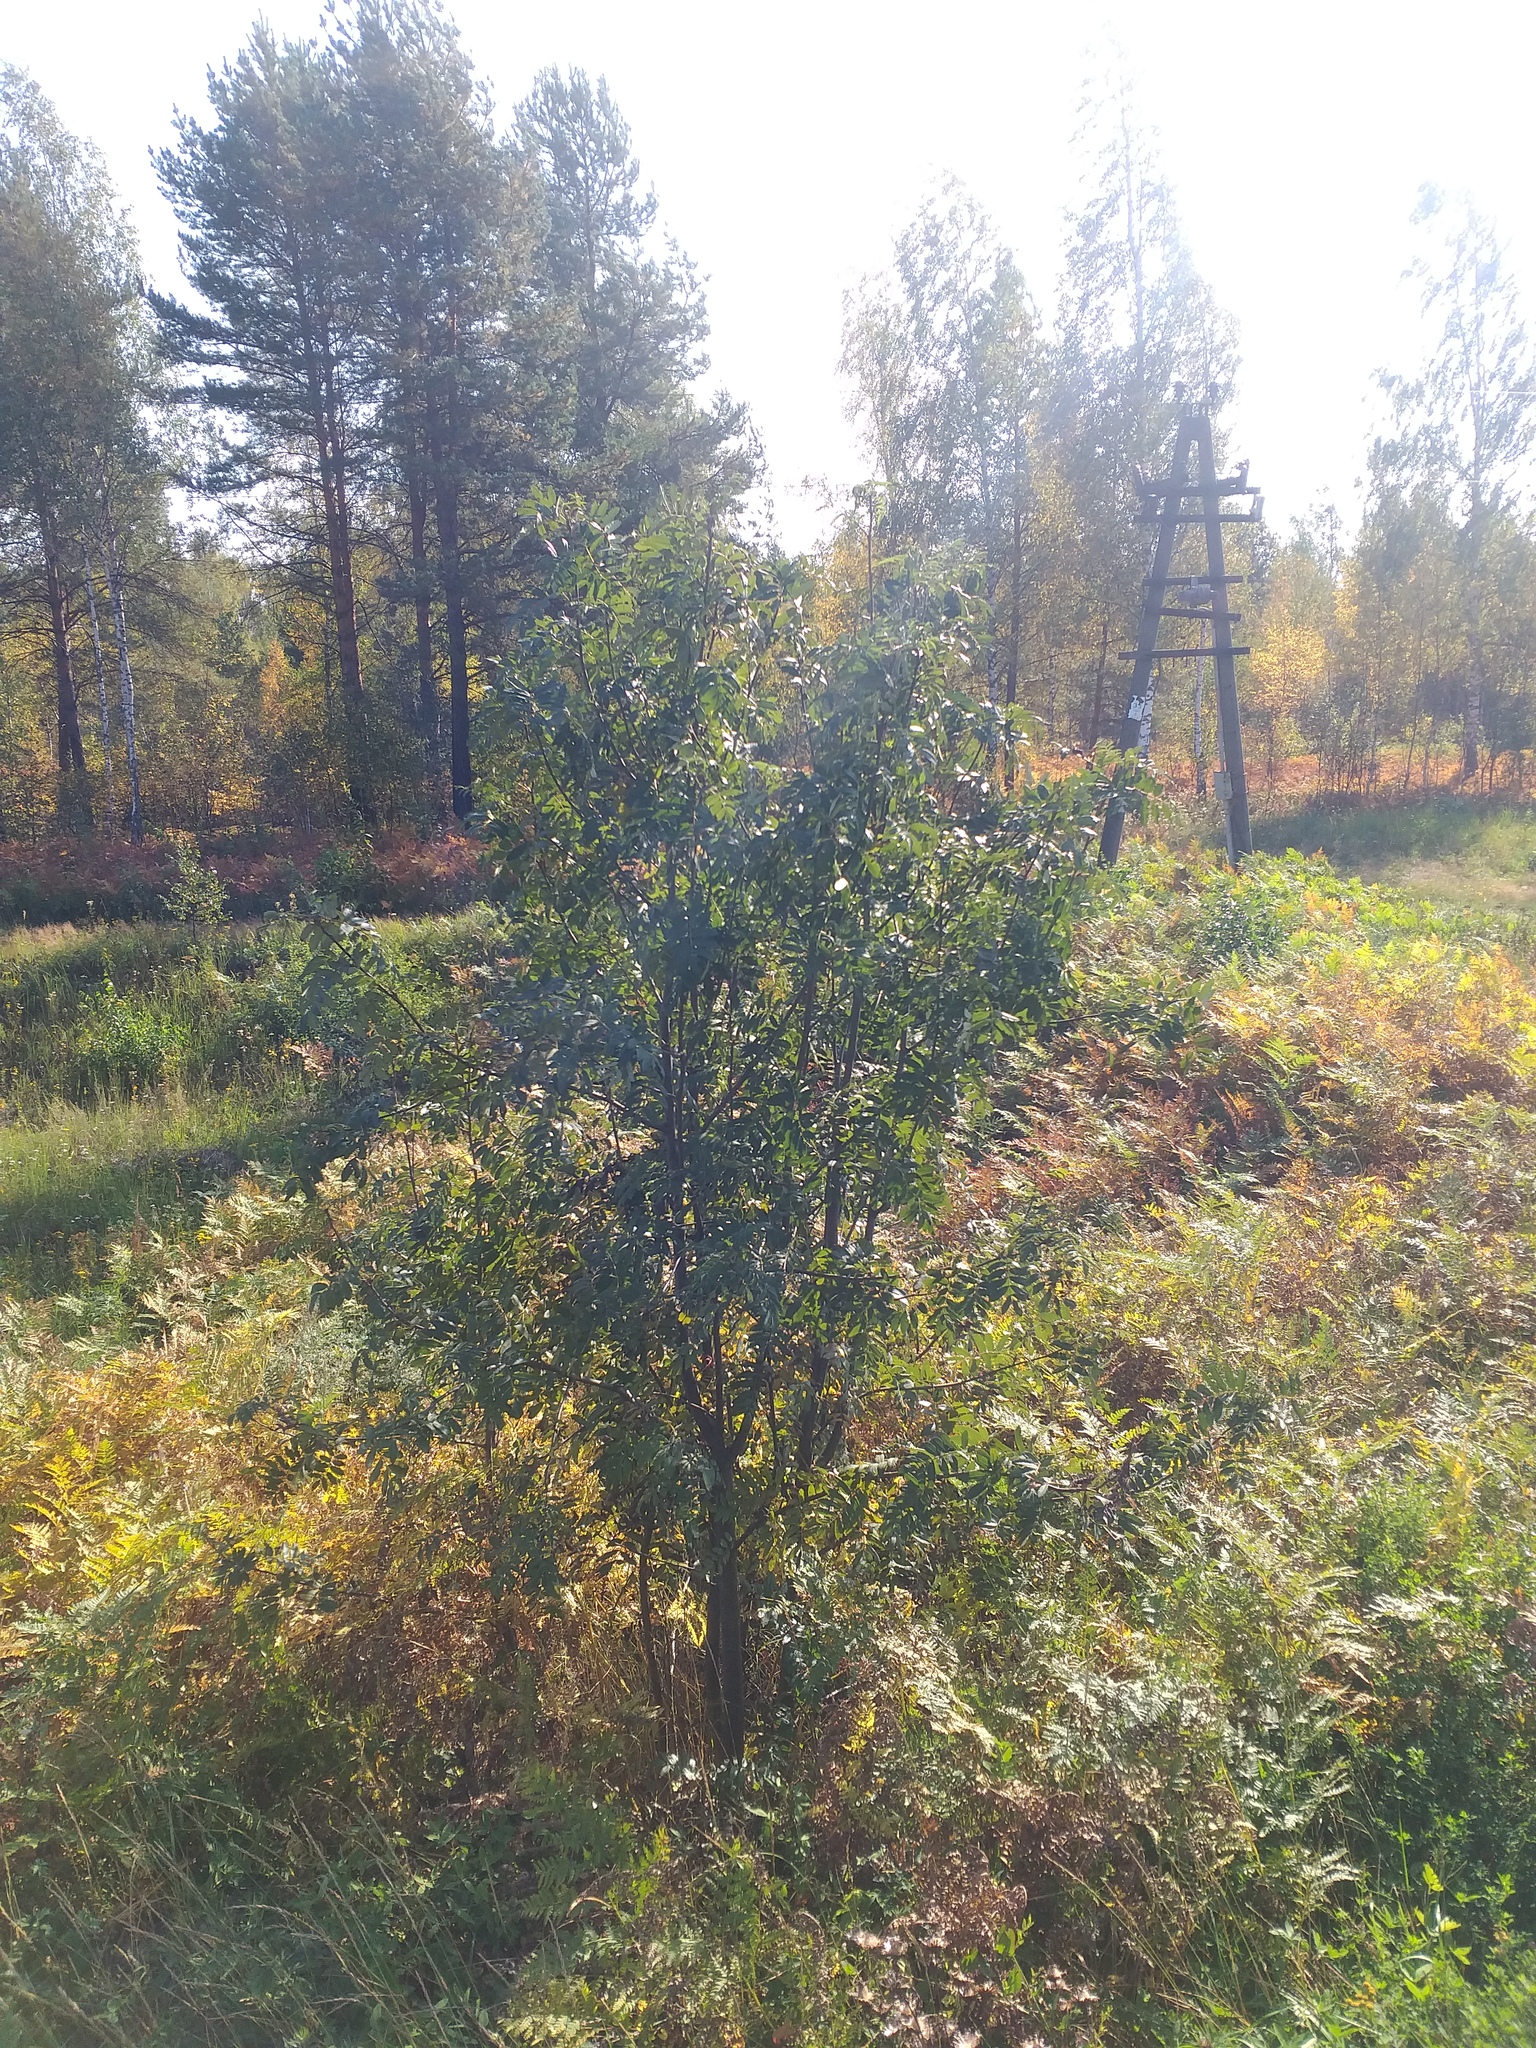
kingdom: Plantae
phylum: Tracheophyta
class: Magnoliopsida
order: Rosales
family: Rosaceae
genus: Sorbus
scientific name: Sorbus aucuparia
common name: Rowan
